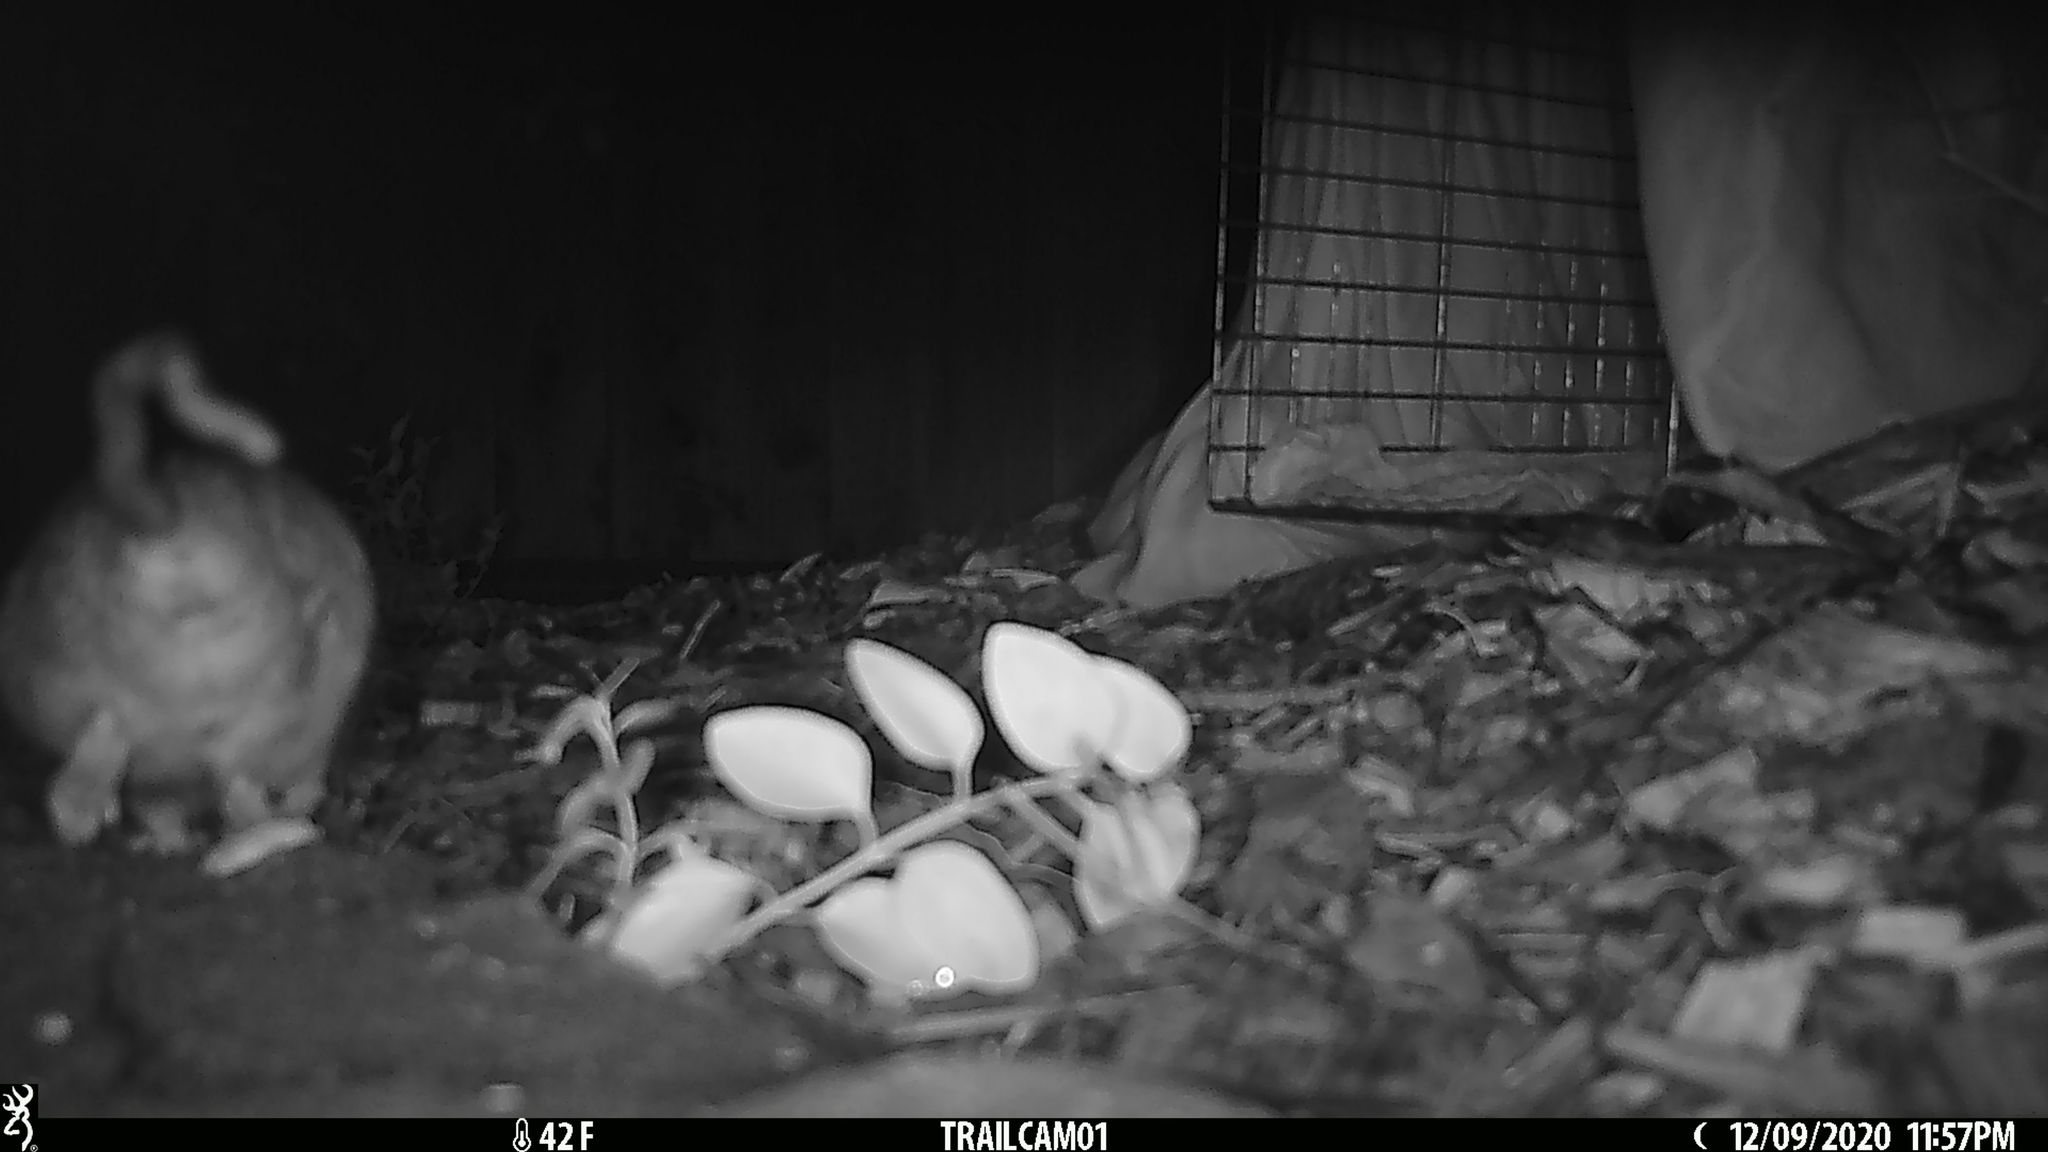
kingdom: Animalia
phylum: Chordata
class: Mammalia
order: Rodentia
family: Muridae
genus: Rattus
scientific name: Rattus rattus
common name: Black rat
